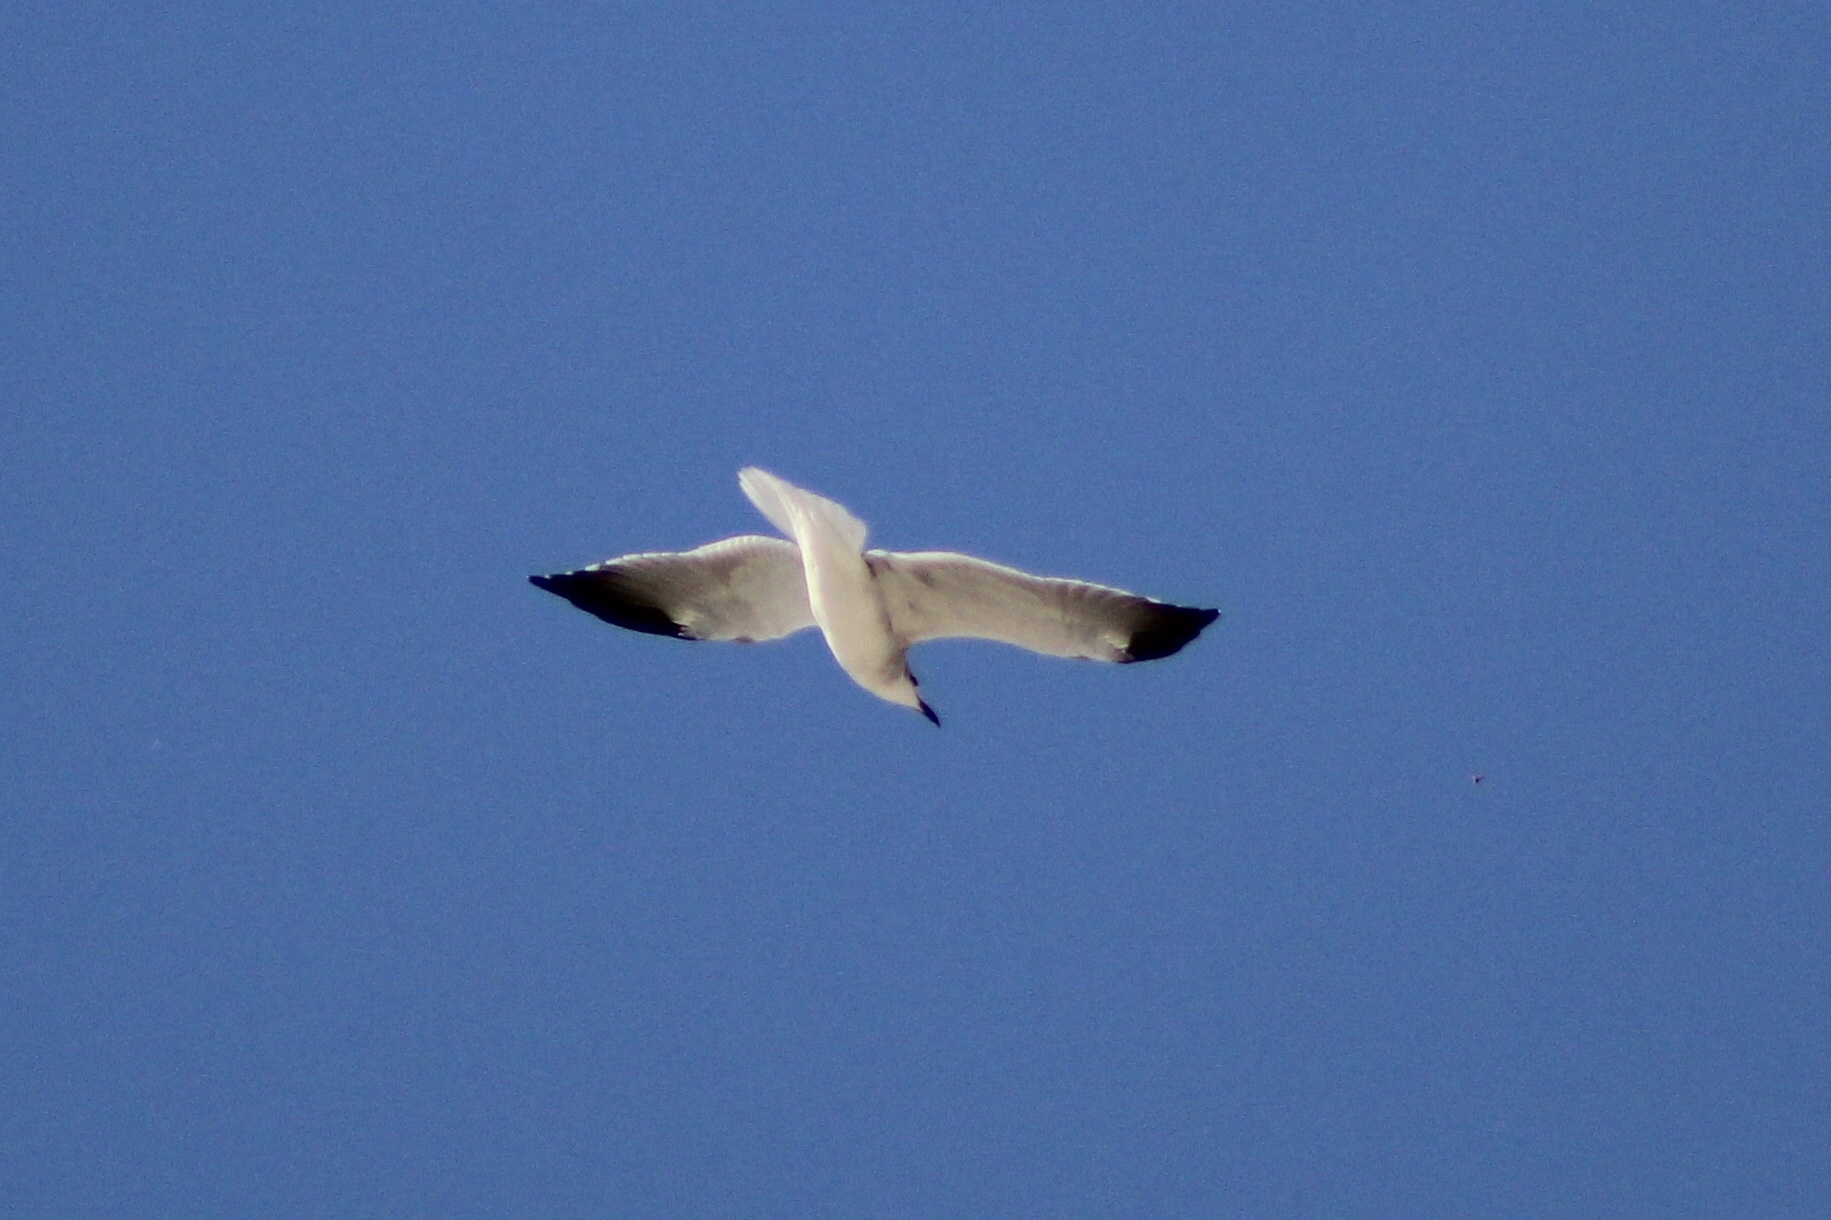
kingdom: Animalia
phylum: Chordata
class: Aves
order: Charadriiformes
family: Laridae
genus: Leucophaeus
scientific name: Leucophaeus atricilla
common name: Laughing gull
